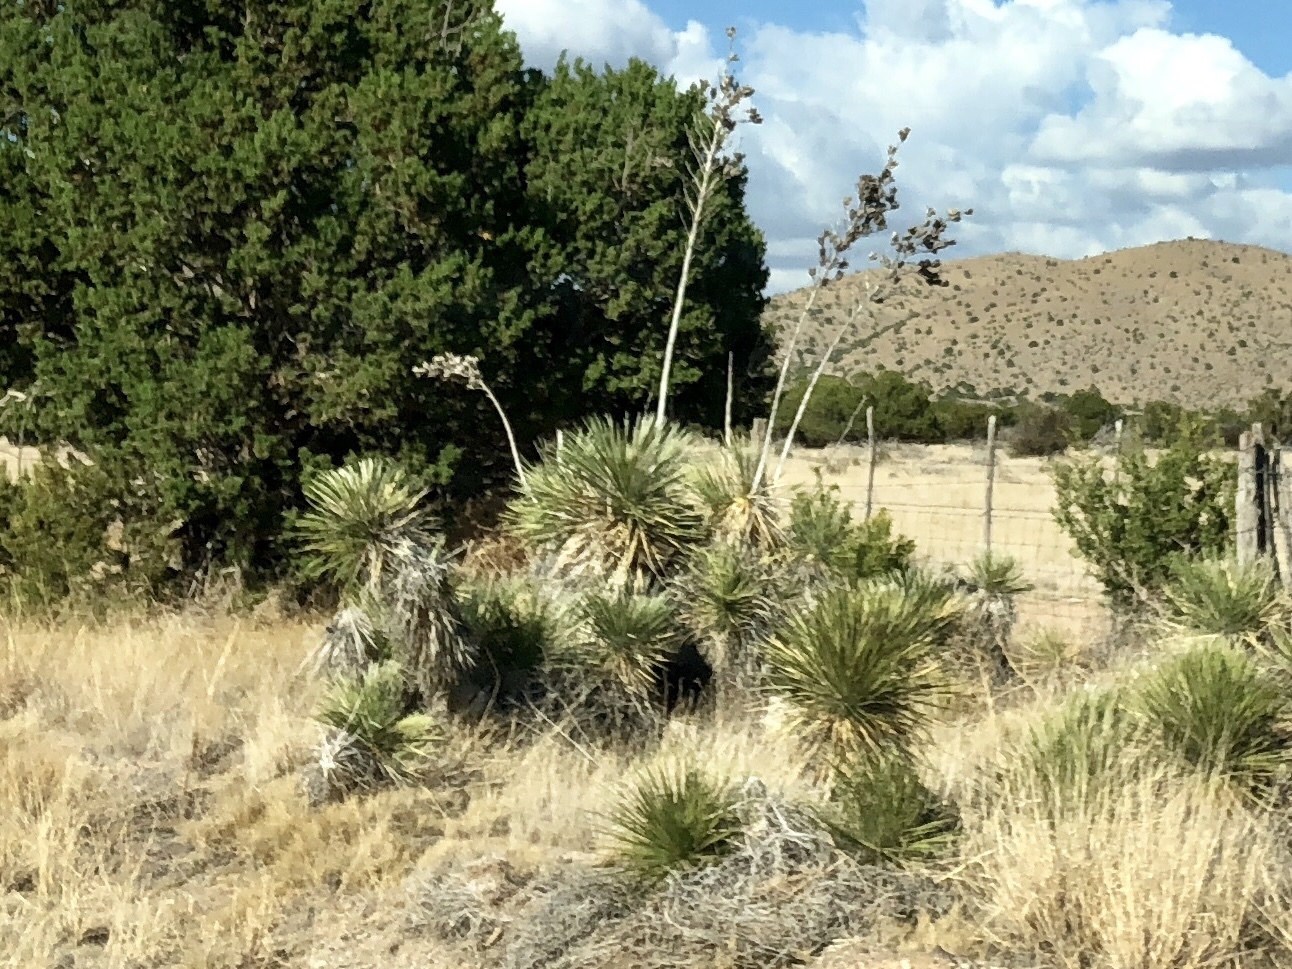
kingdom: Plantae
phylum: Tracheophyta
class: Liliopsida
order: Asparagales
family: Asparagaceae
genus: Yucca
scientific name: Yucca elata
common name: Palmella
